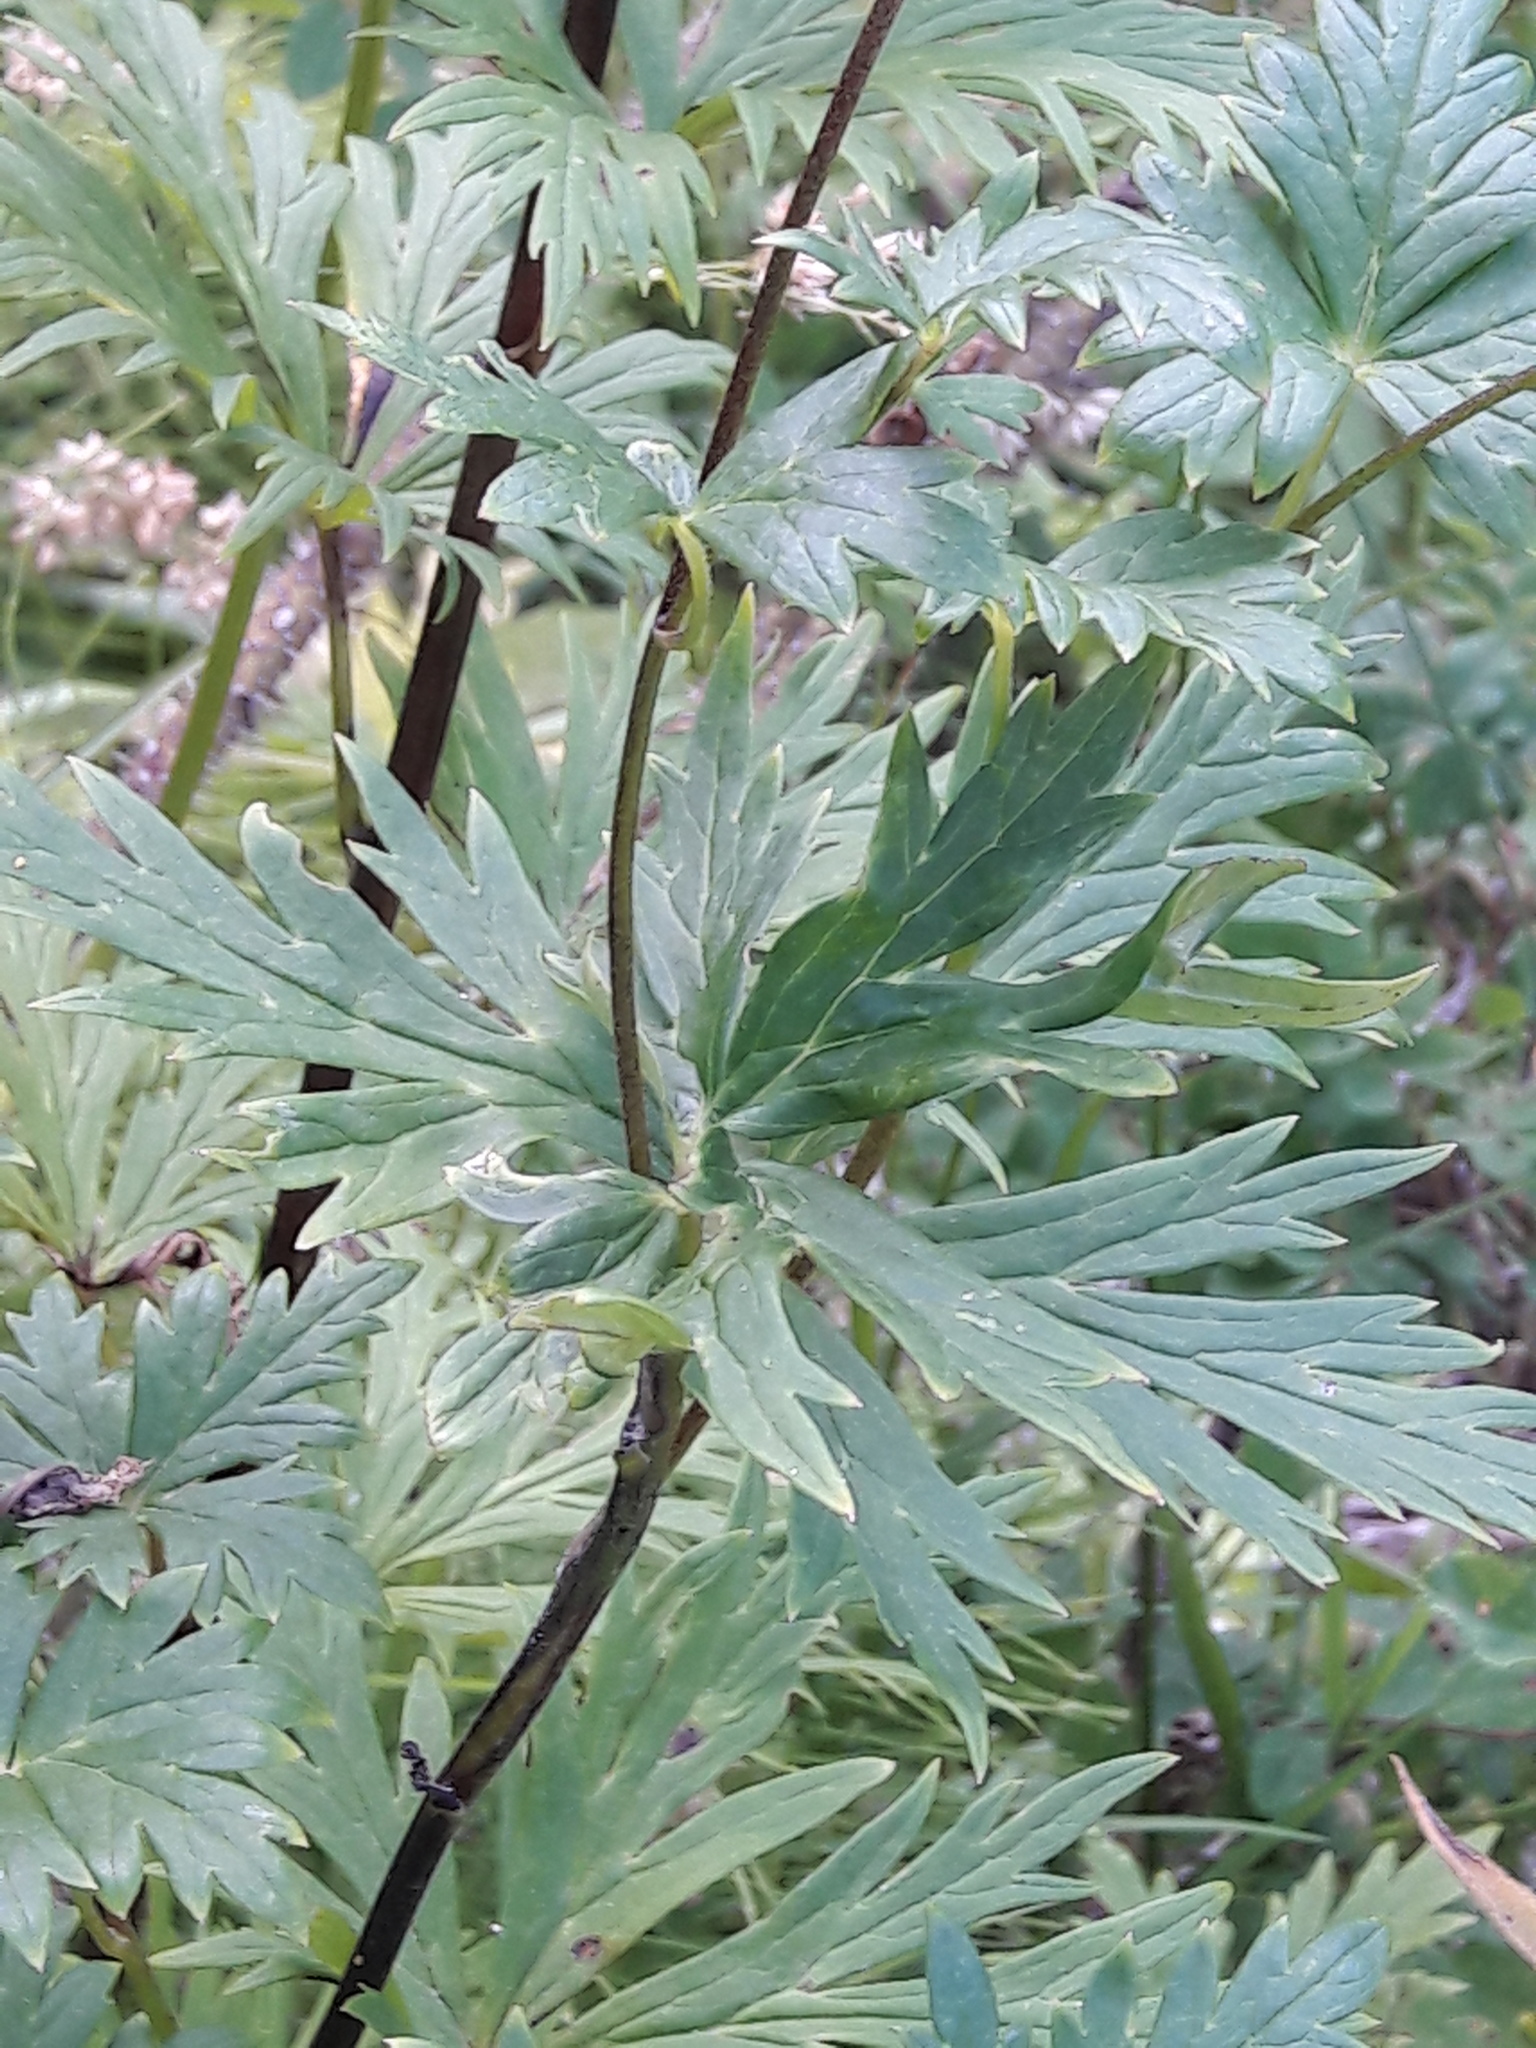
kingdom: Plantae
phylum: Tracheophyta
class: Magnoliopsida
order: Ranunculales
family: Ranunculaceae
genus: Aconitum
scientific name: Aconitum degenii
